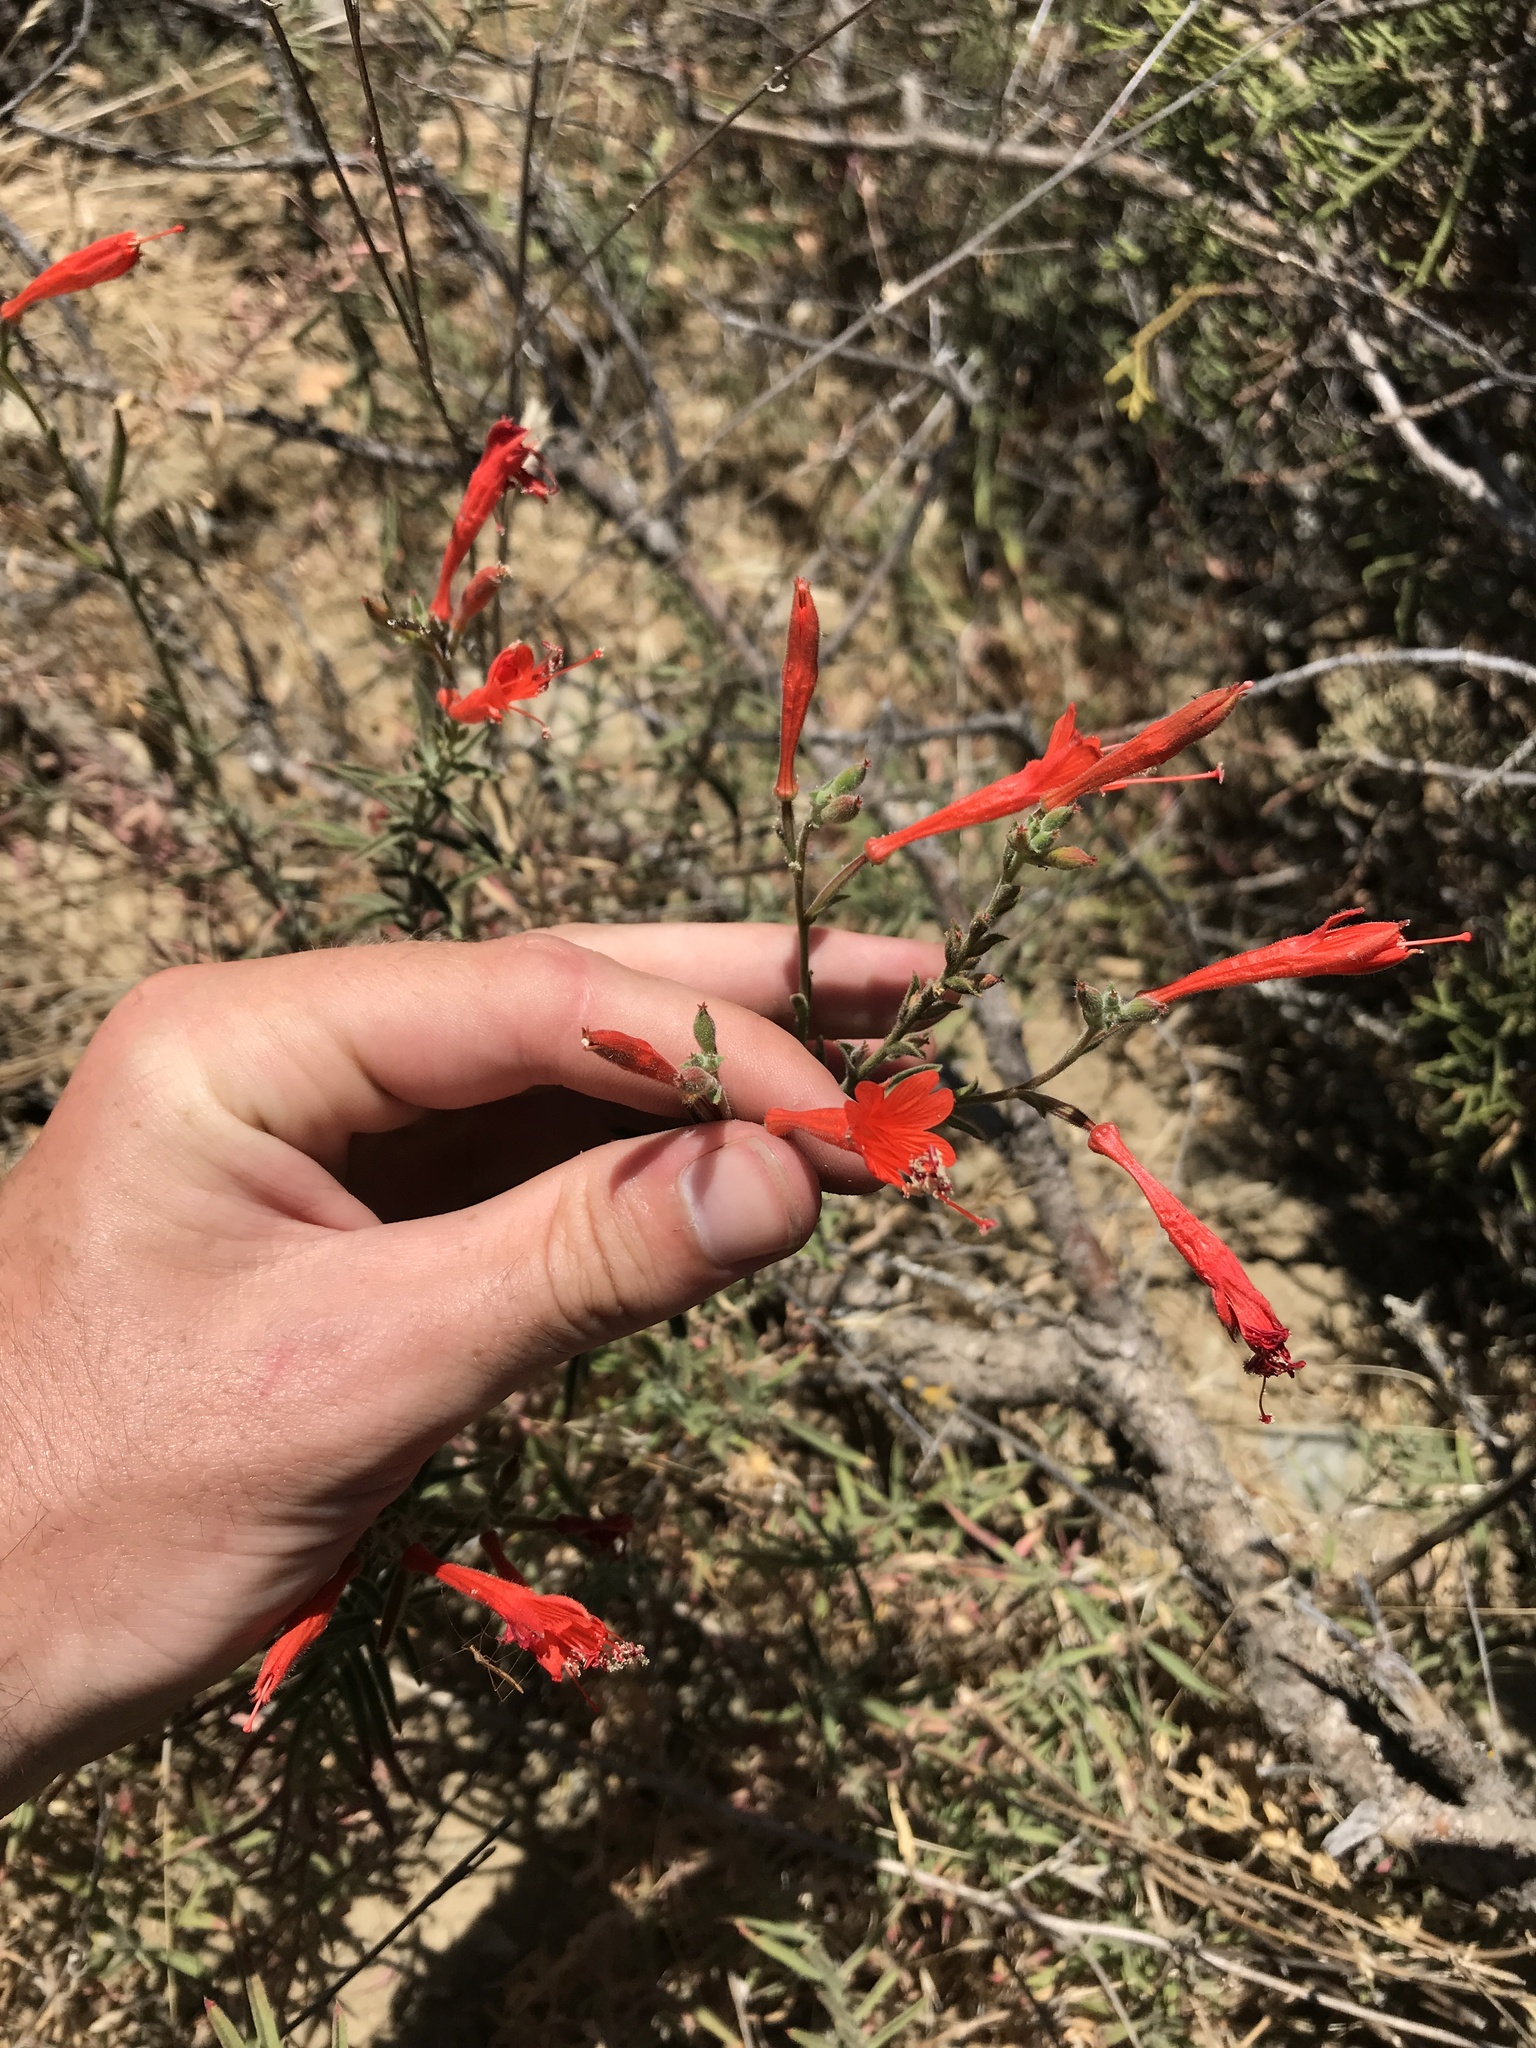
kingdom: Plantae
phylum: Tracheophyta
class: Magnoliopsida
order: Myrtales
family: Onagraceae
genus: Epilobium
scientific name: Epilobium canum
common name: California-fuchsia
